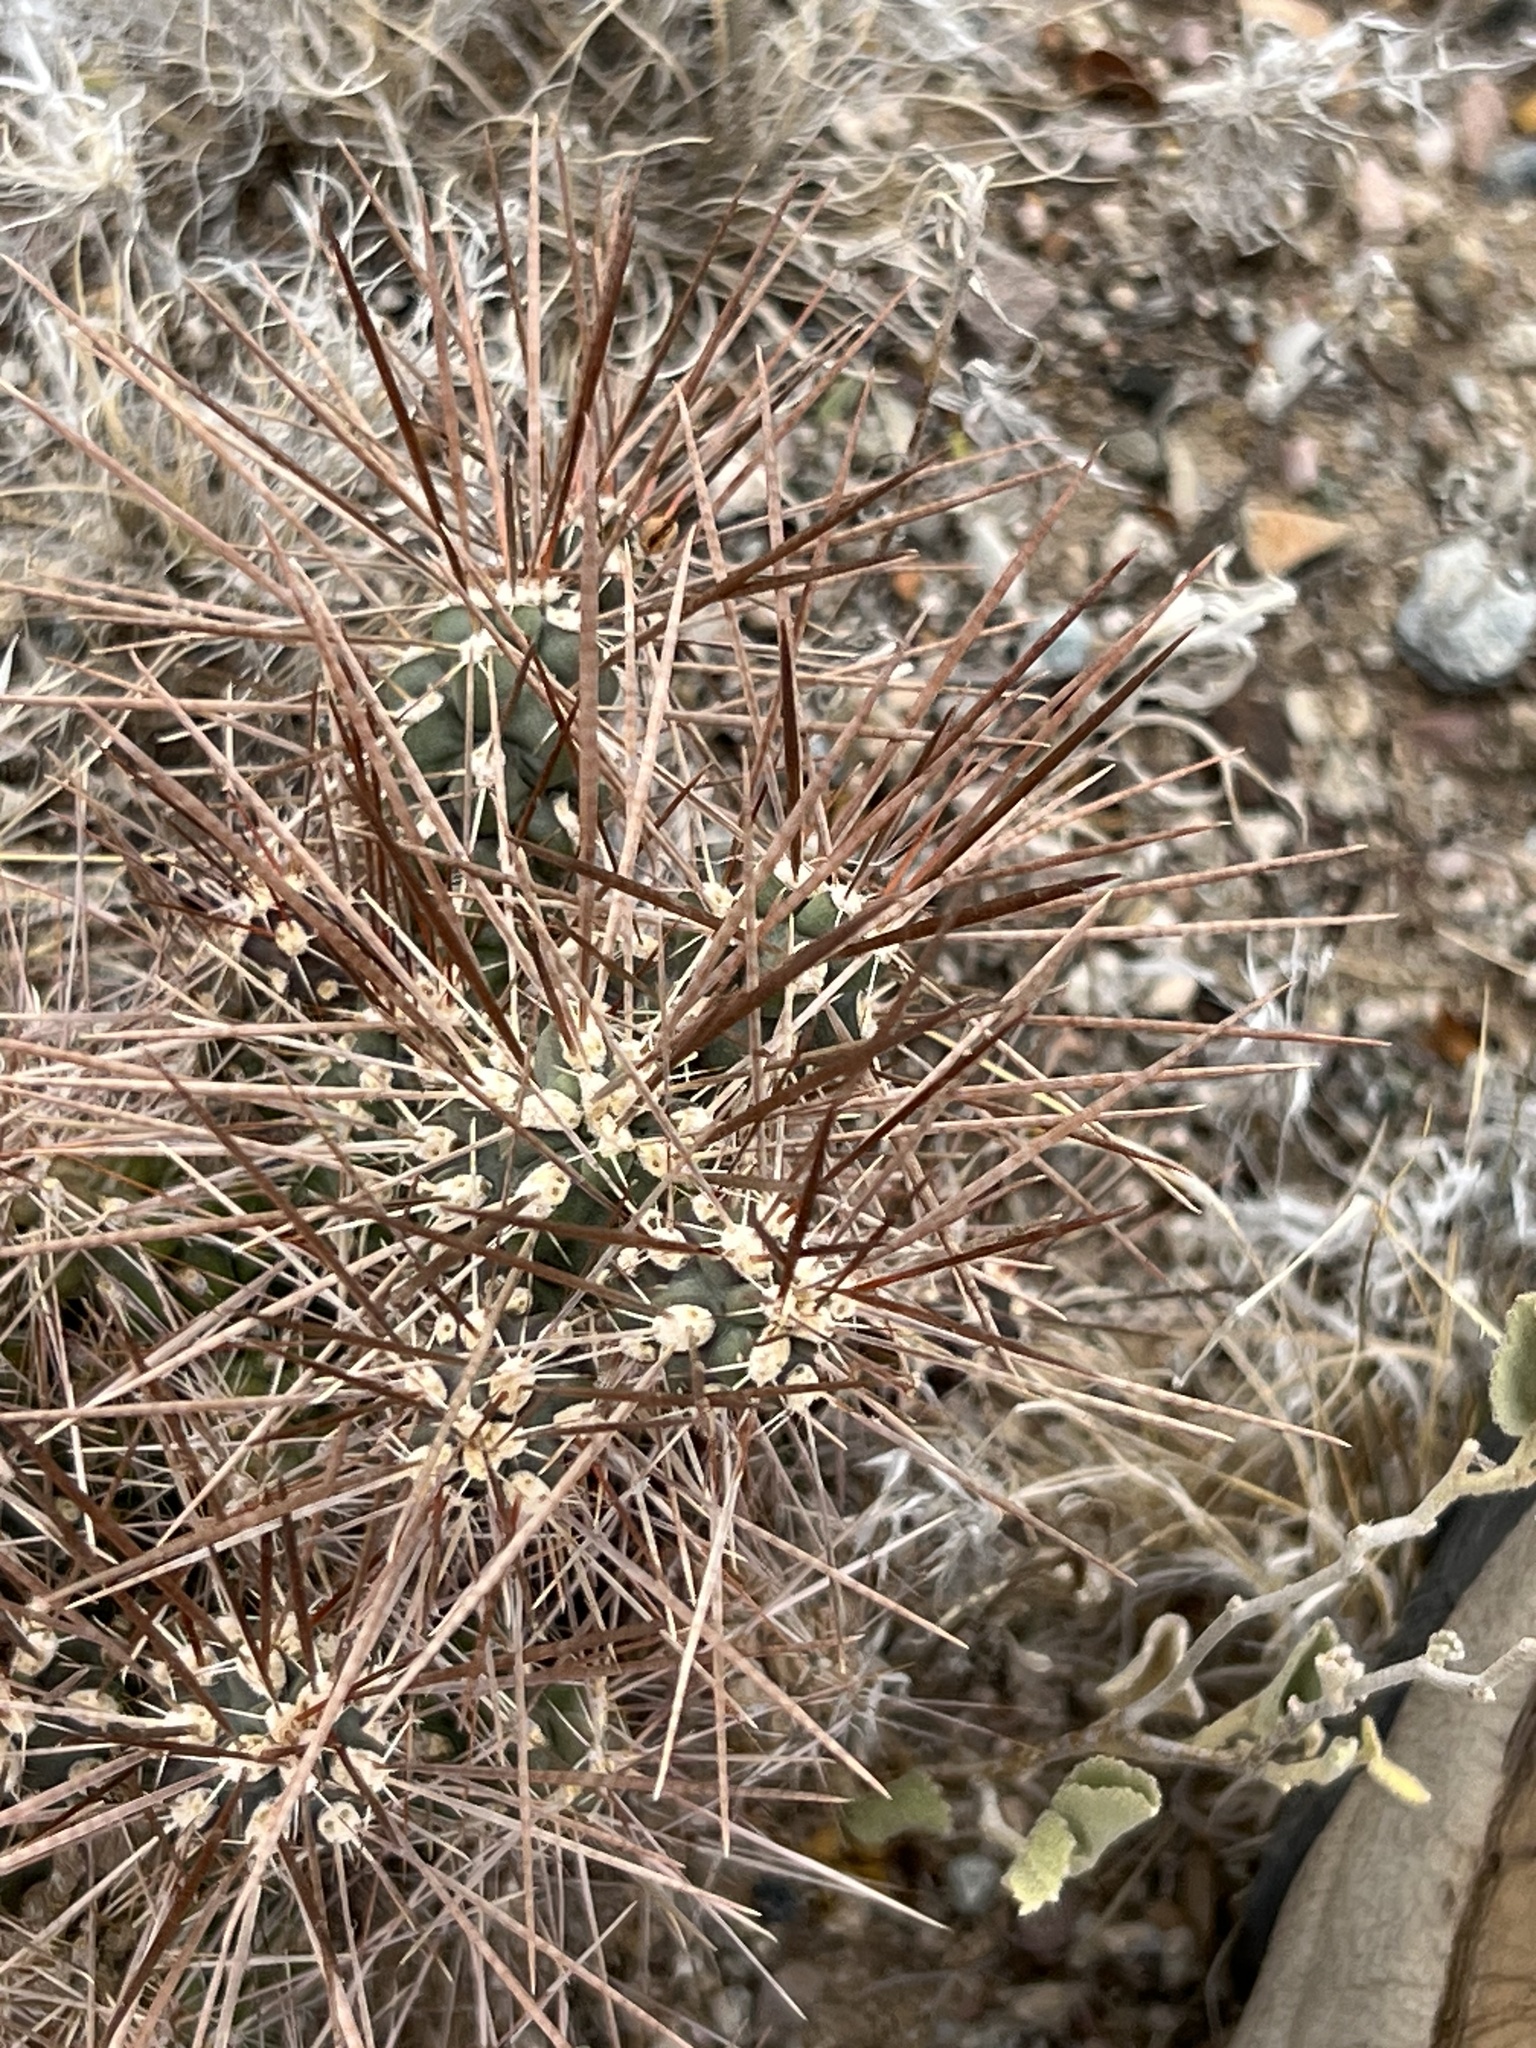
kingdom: Plantae
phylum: Tracheophyta
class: Magnoliopsida
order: Caryophyllales
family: Cactaceae
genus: Grusonia
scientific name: Grusonia emoryi
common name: Stanly's club cholla
